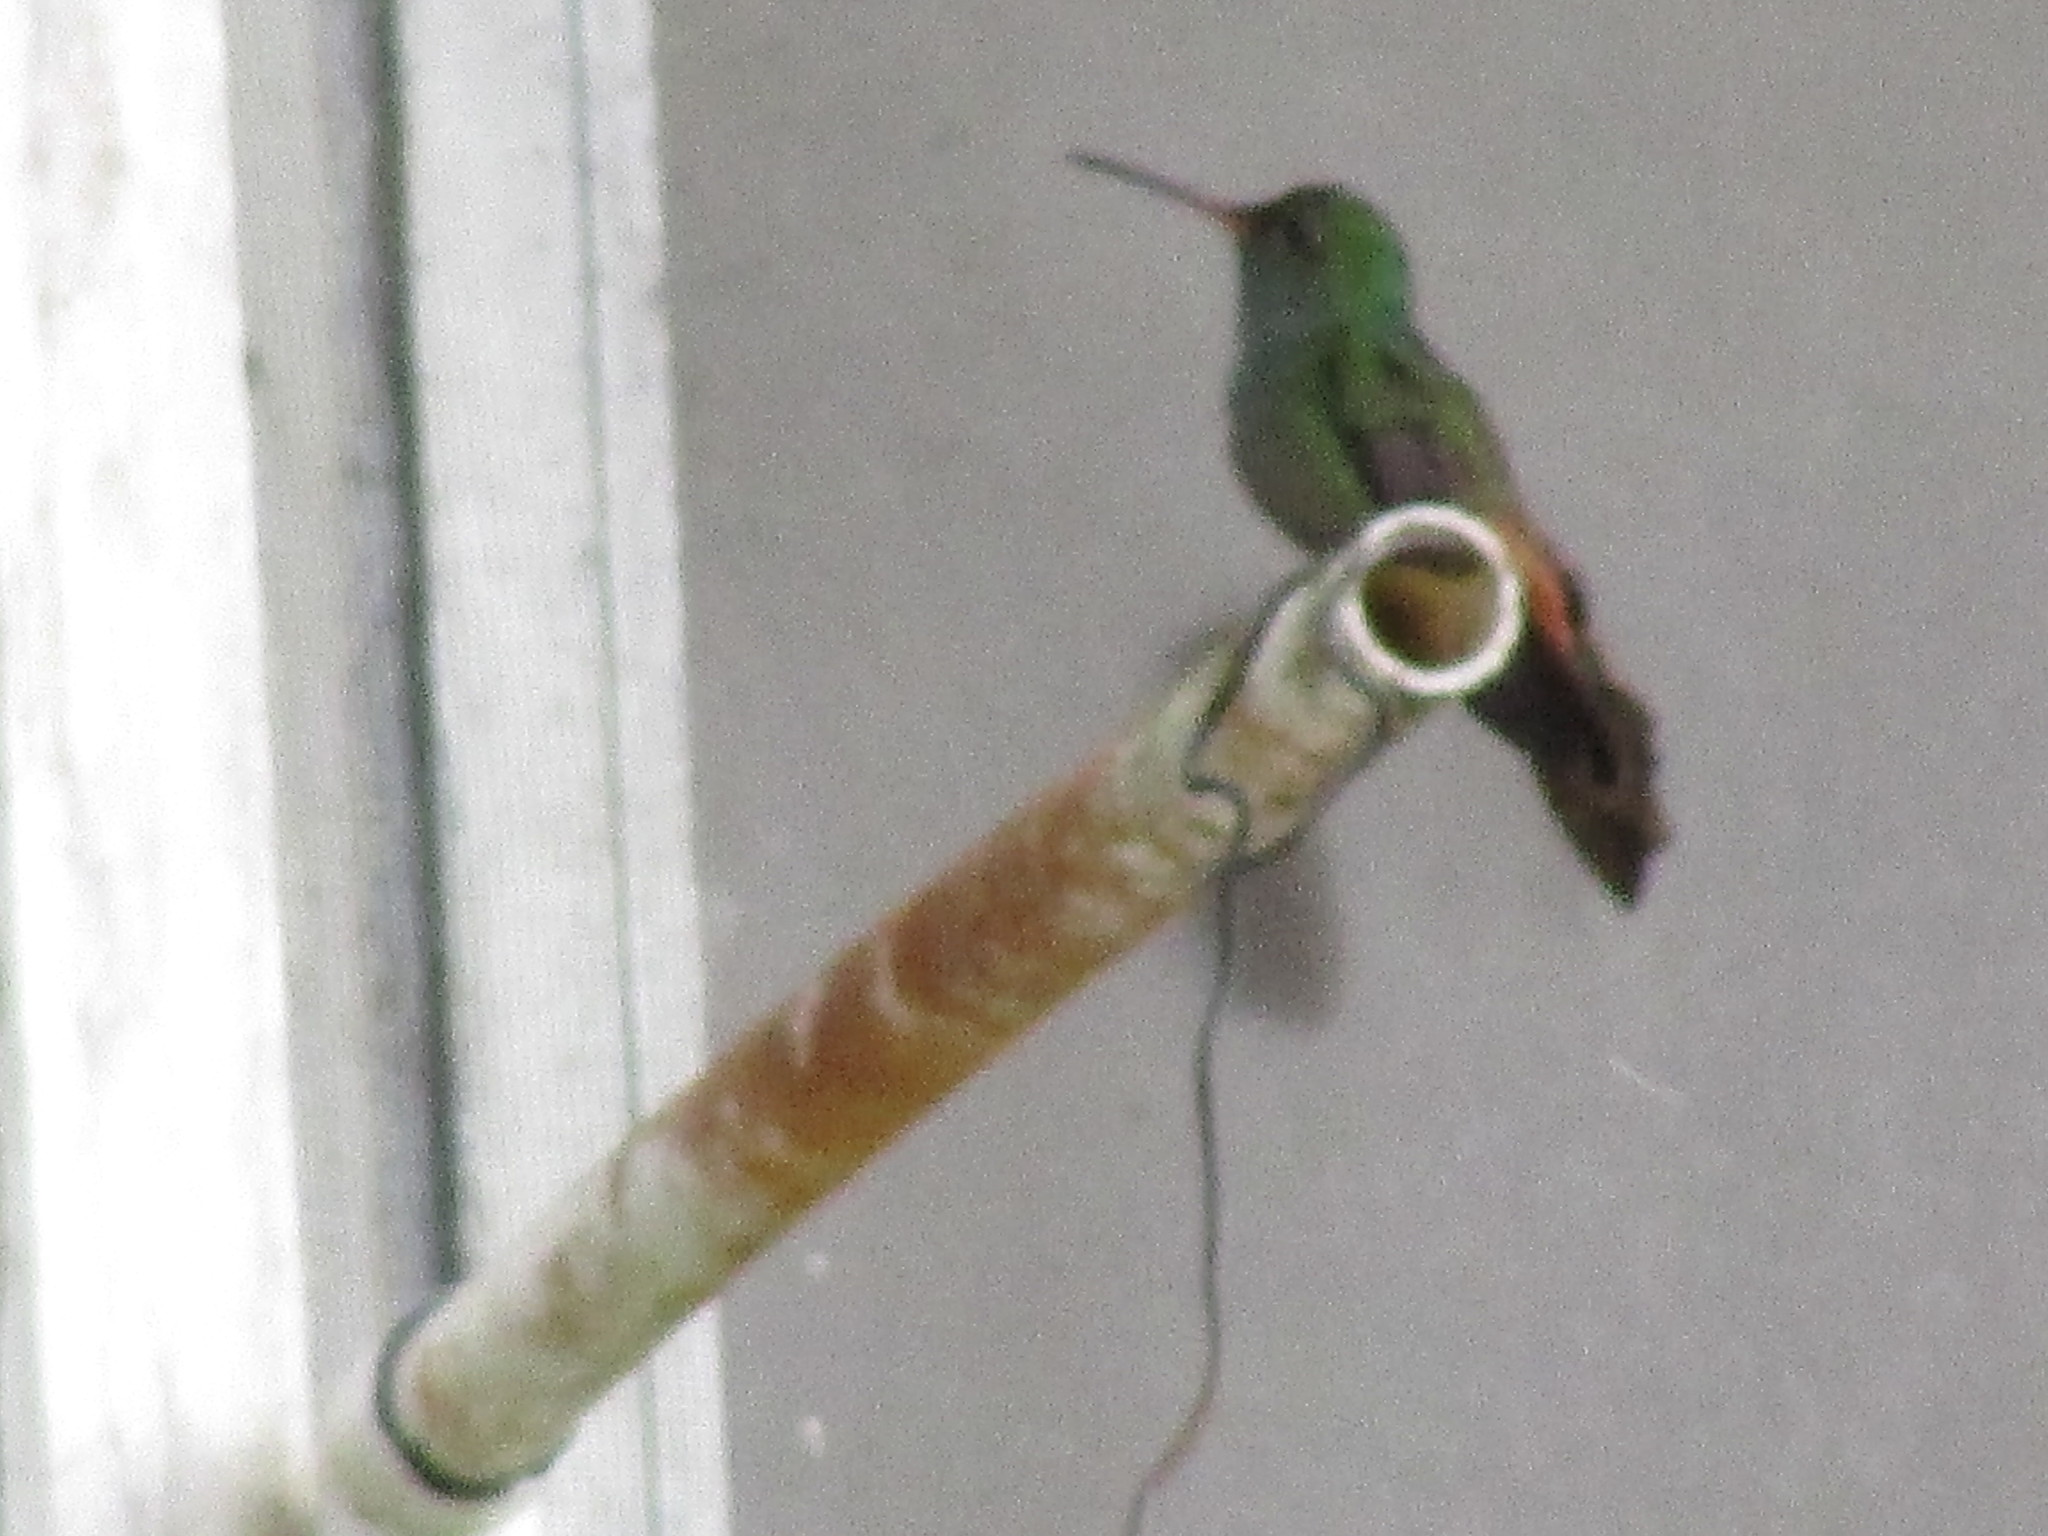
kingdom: Animalia
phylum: Chordata
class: Aves
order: Apodiformes
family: Trochilidae
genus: Amazilia
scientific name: Amazilia tzacatl
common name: Rufous-tailed hummingbird
